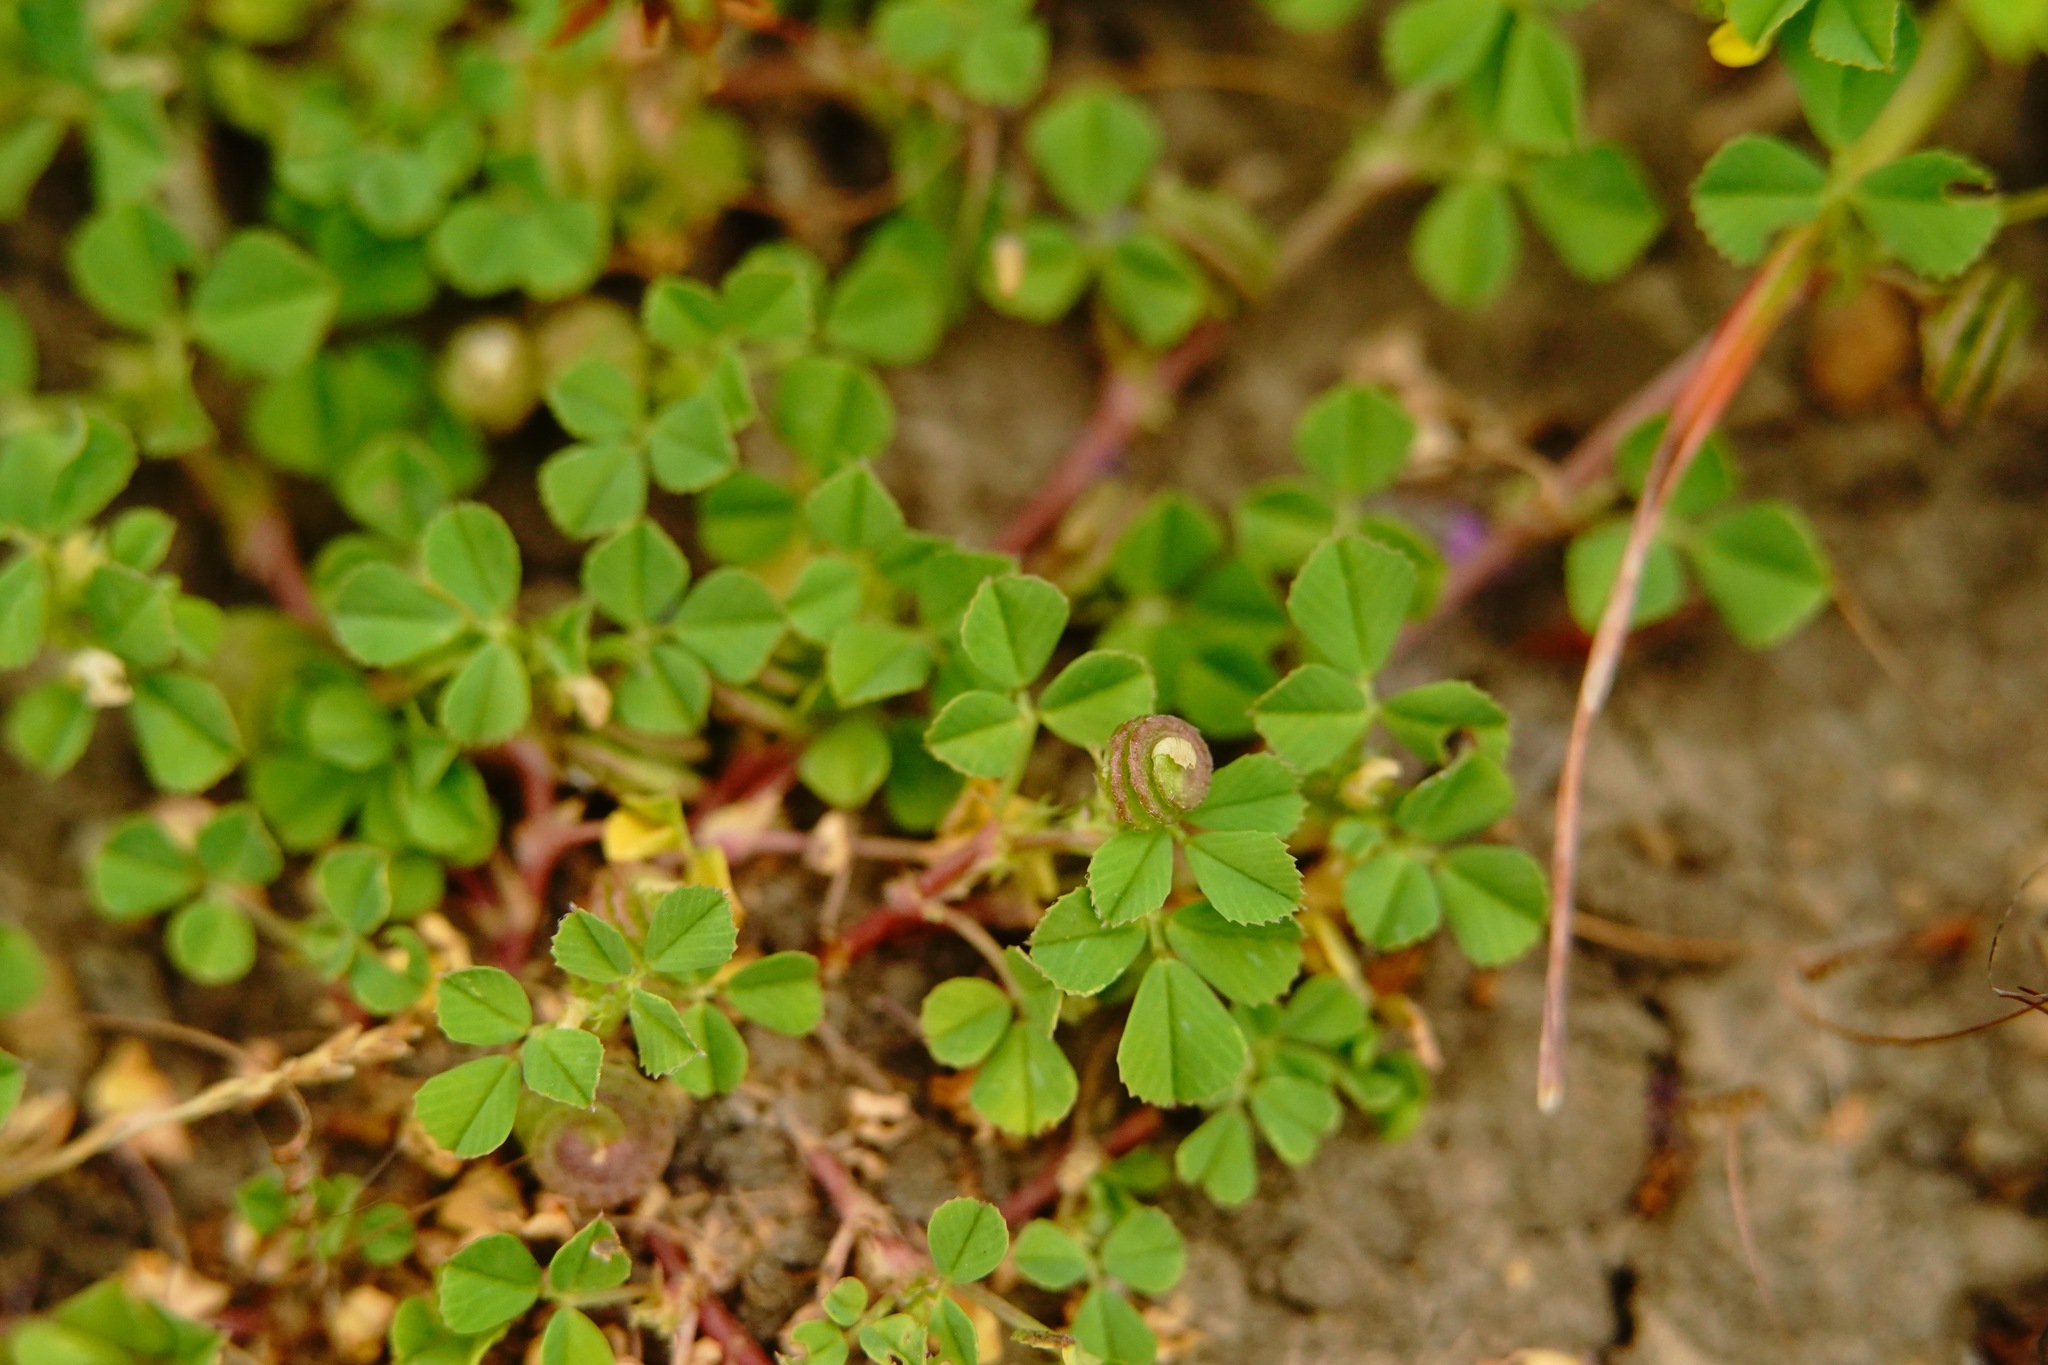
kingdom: Plantae
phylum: Tracheophyta
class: Magnoliopsida
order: Fabales
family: Fabaceae
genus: Trifolium
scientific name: Trifolium tomentosum
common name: Woolly clover
